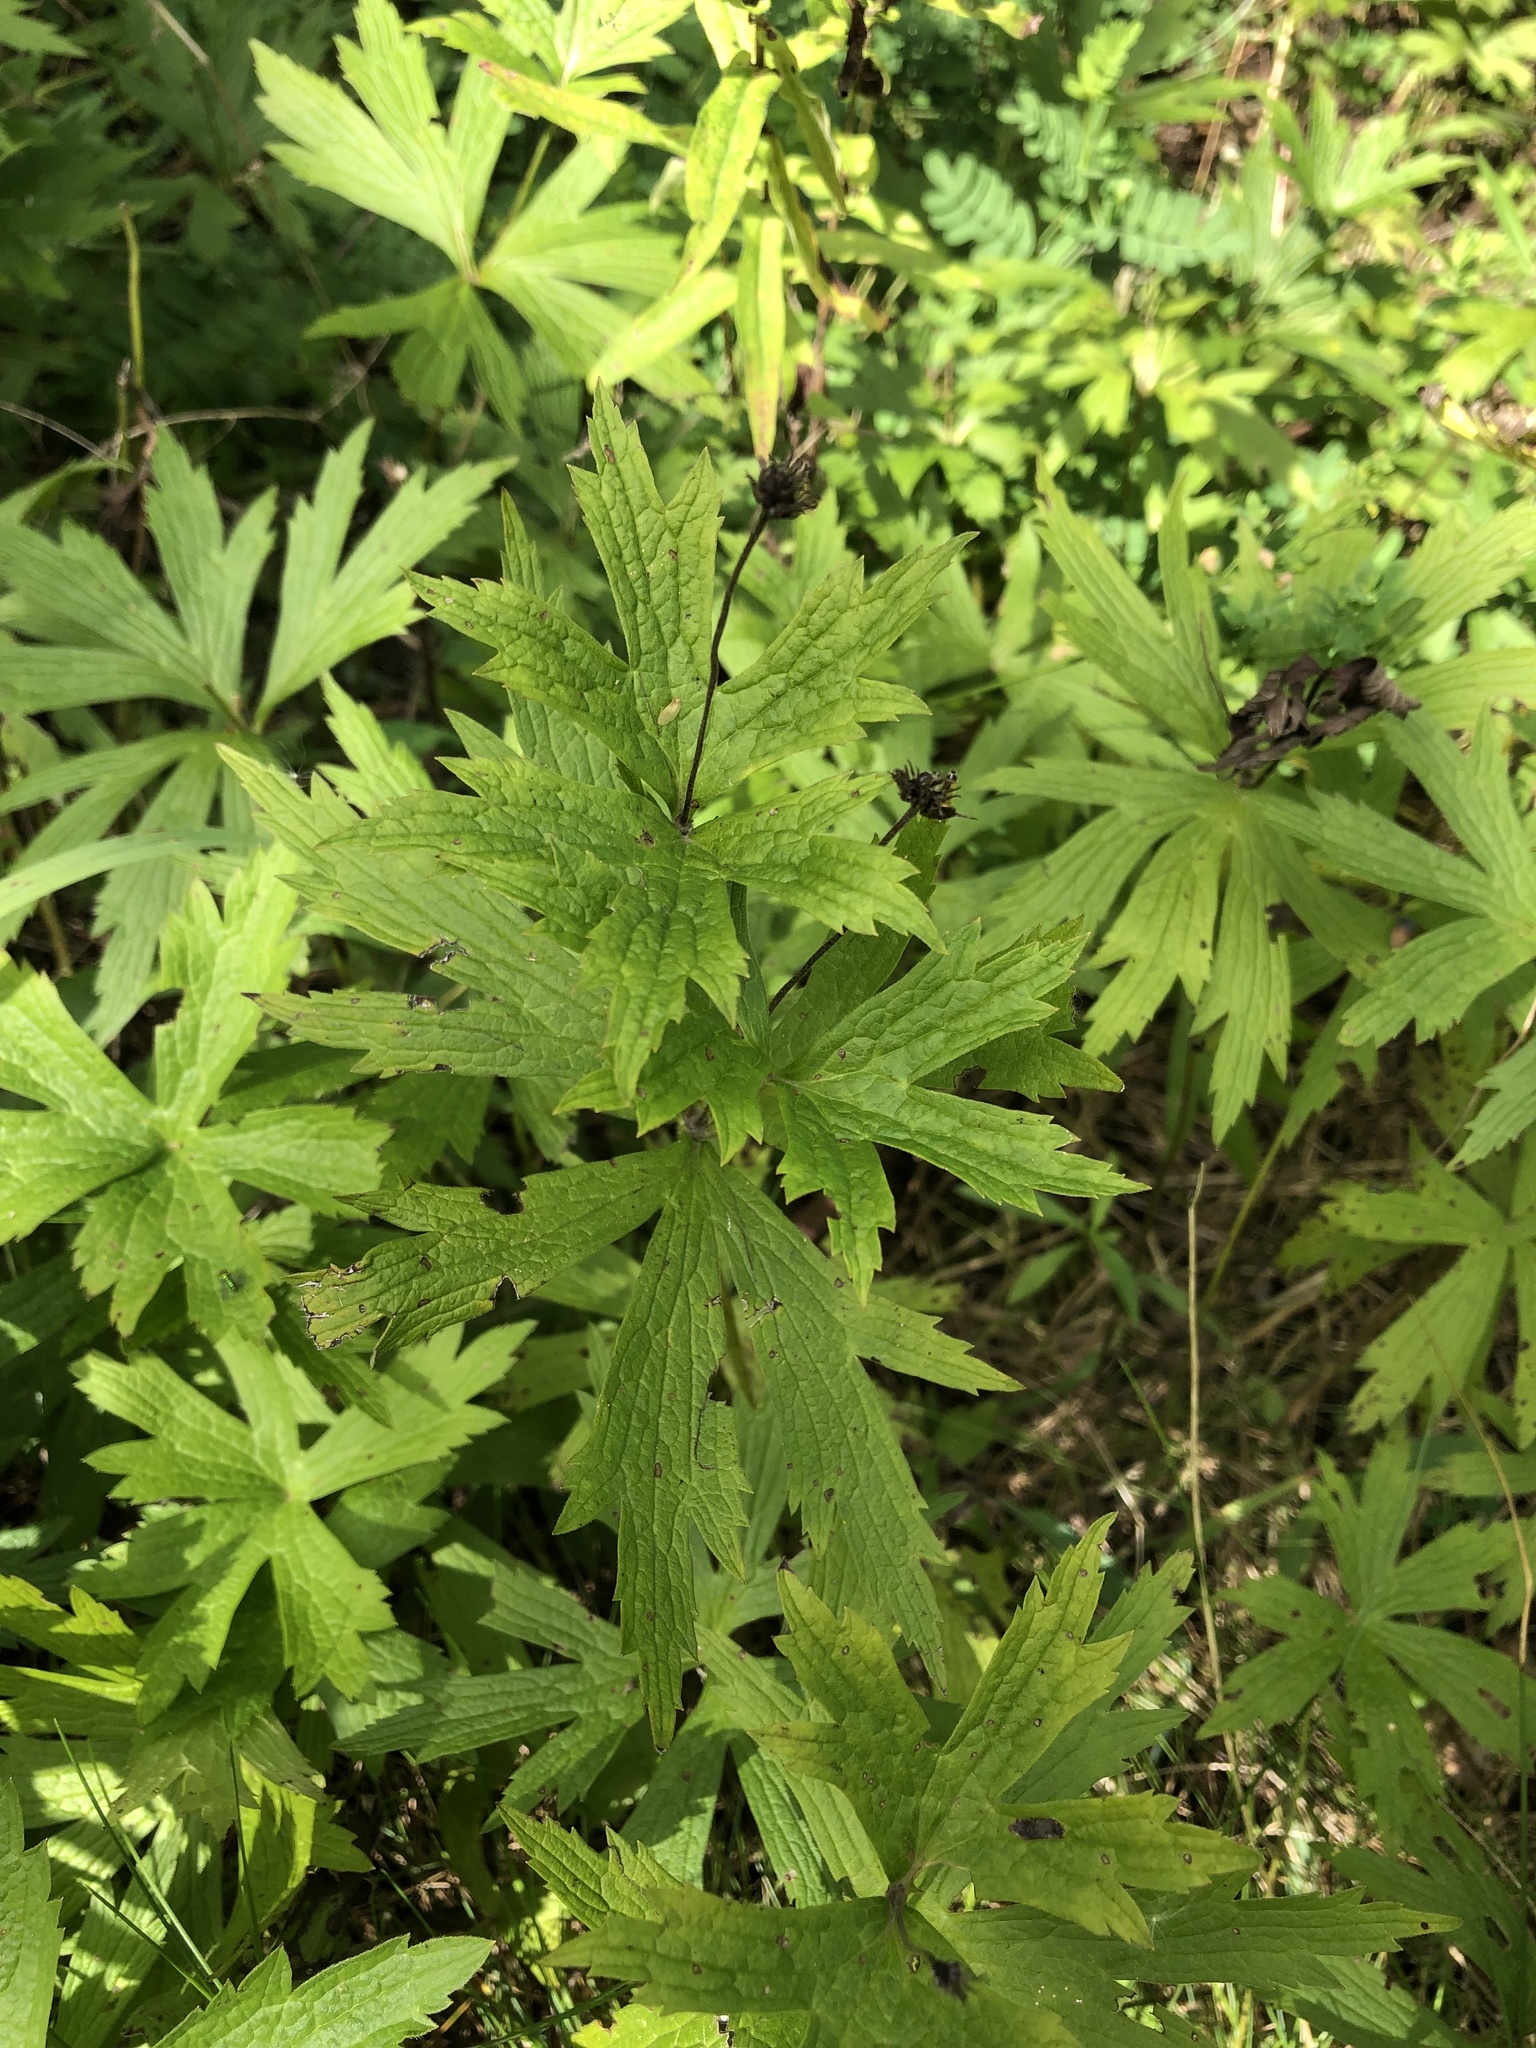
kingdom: Plantae
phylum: Tracheophyta
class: Magnoliopsida
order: Ranunculales
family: Ranunculaceae
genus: Anemonastrum
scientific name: Anemonastrum canadense
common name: Canada anemone
